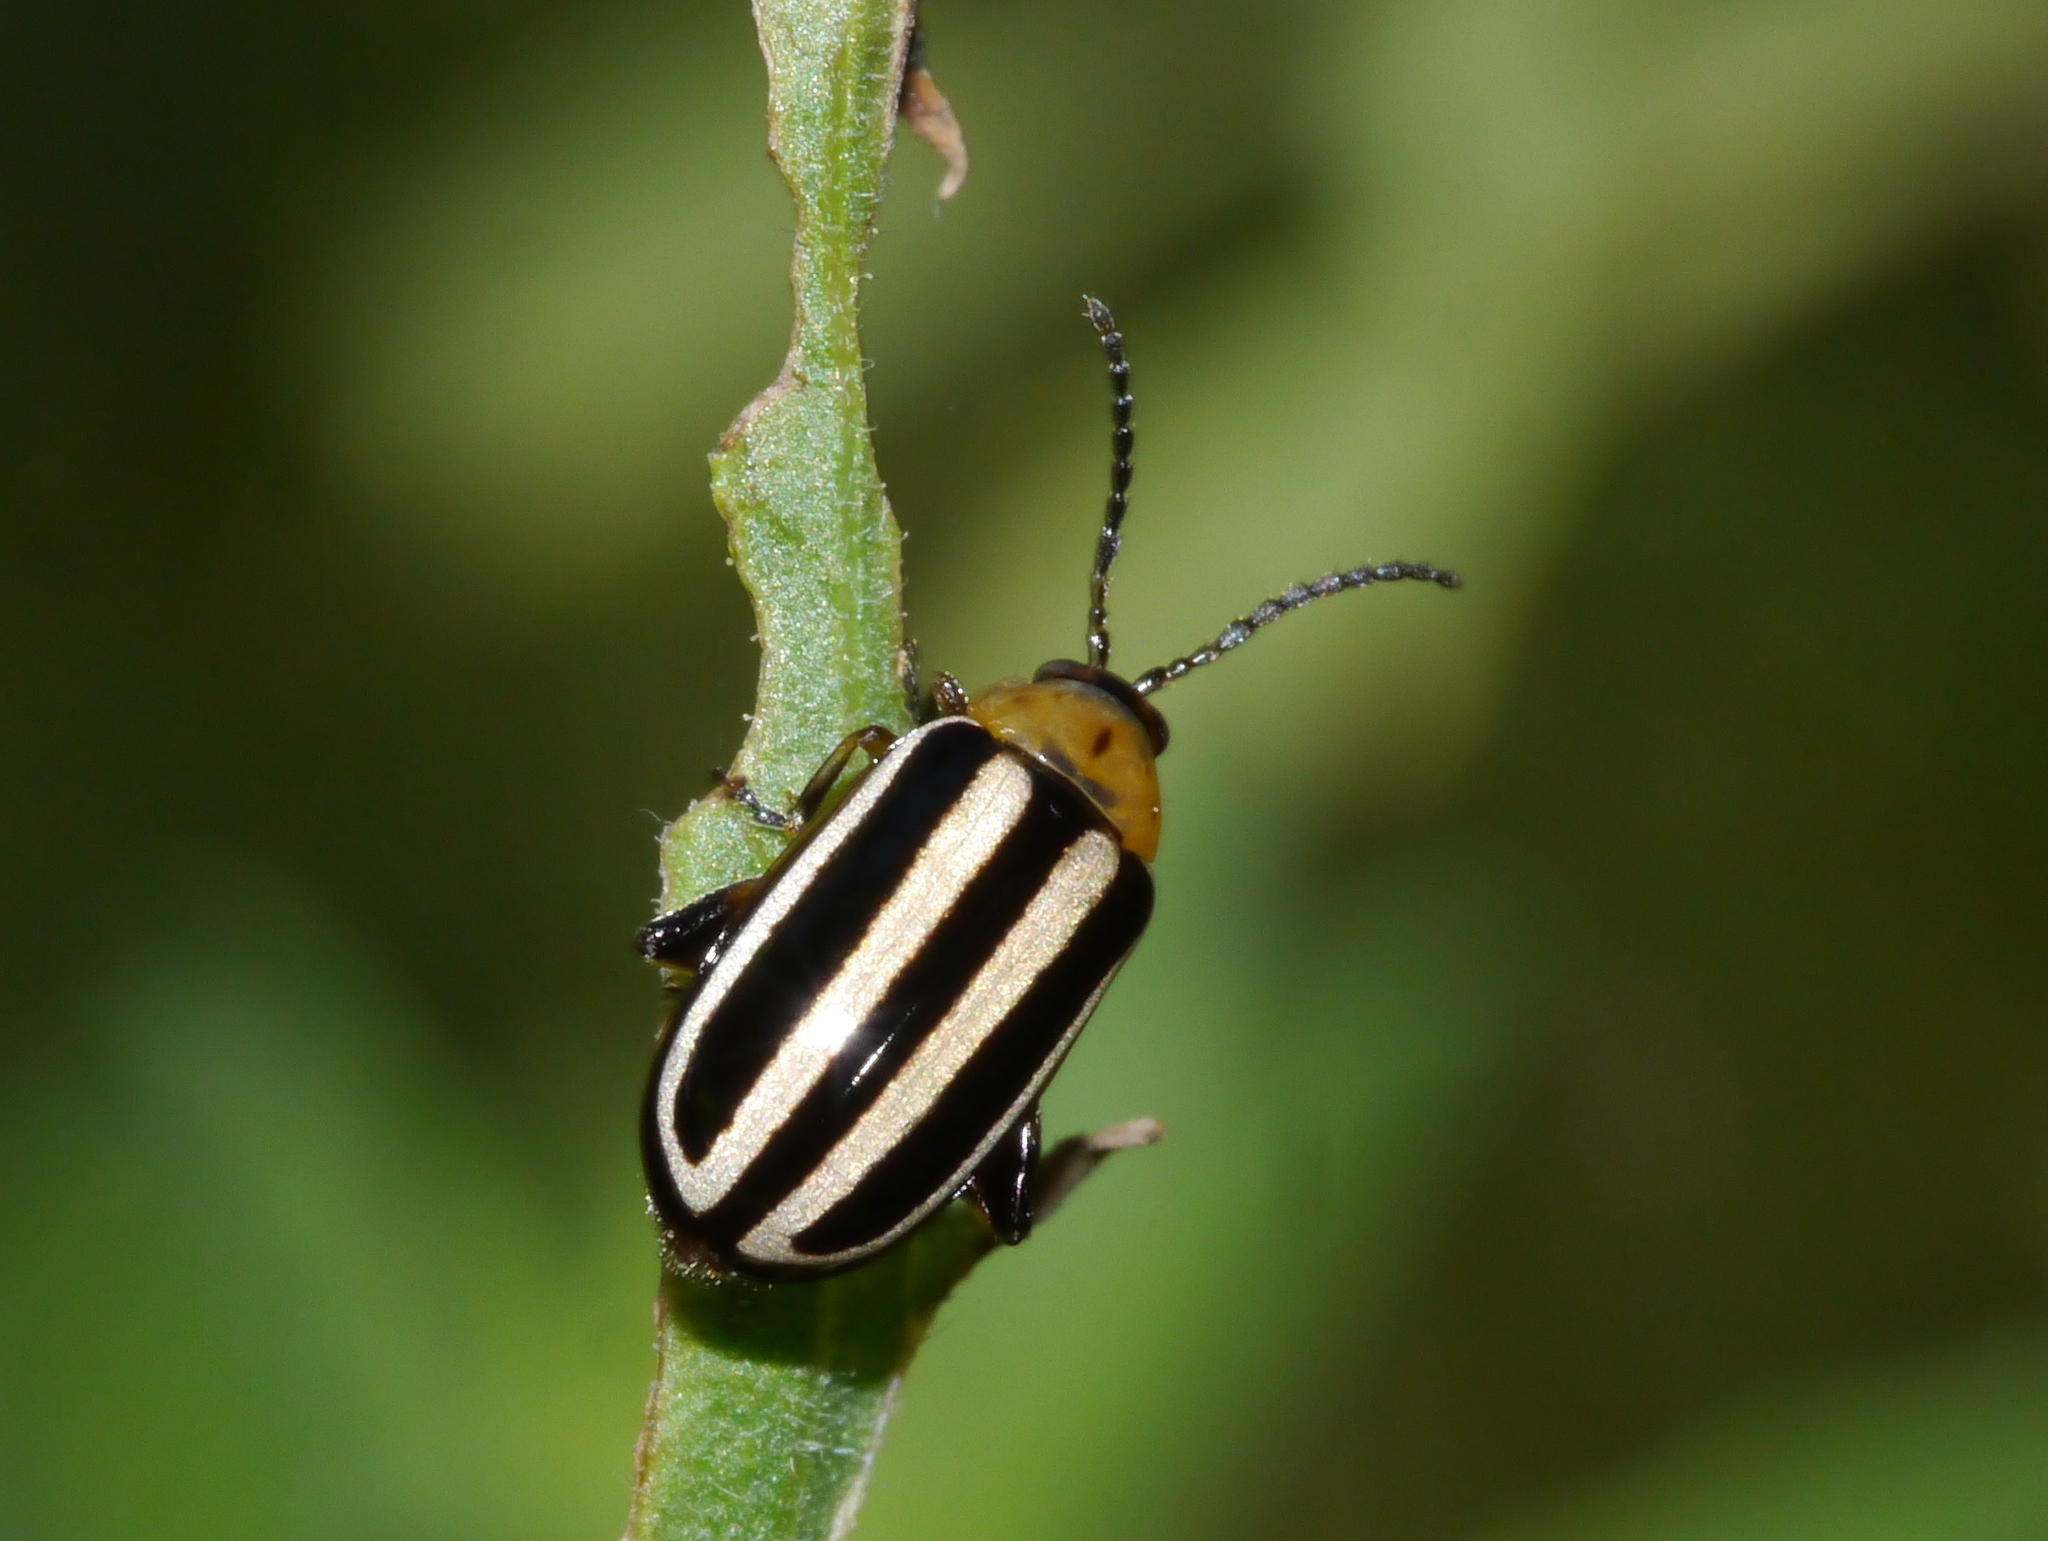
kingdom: Animalia
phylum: Arthropoda
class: Insecta
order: Coleoptera
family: Chrysomelidae
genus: Disonycha
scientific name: Disonycha glabrata
